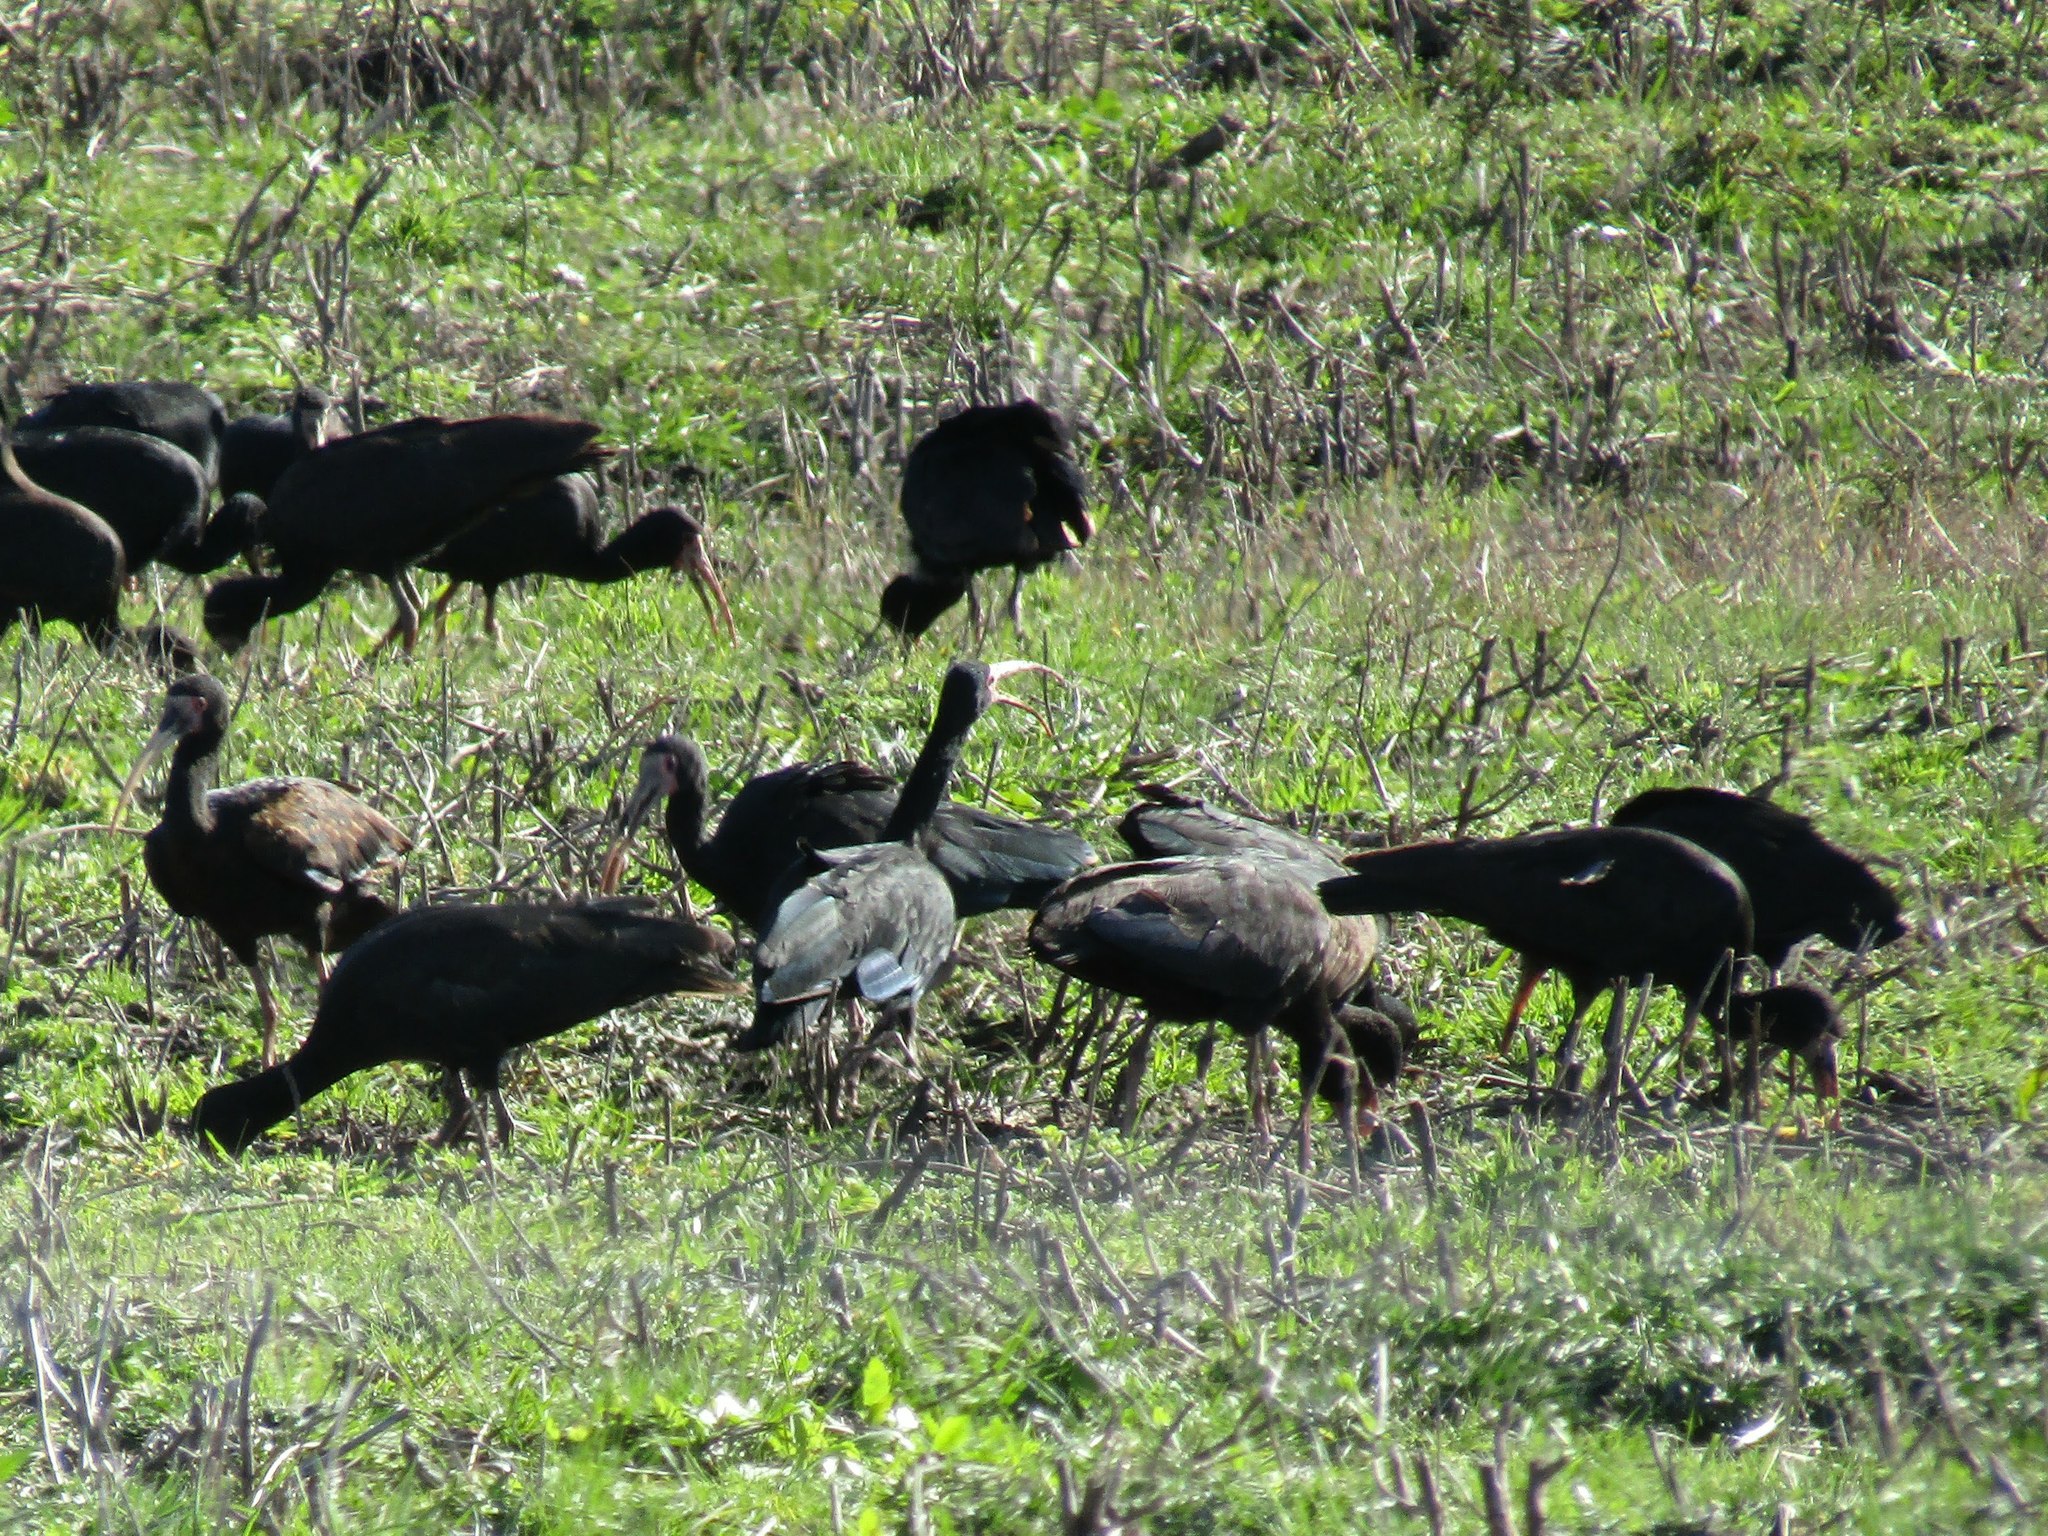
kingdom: Animalia
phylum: Chordata
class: Aves
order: Pelecaniformes
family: Threskiornithidae
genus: Phimosus
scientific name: Phimosus infuscatus
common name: Bare-faced ibis
